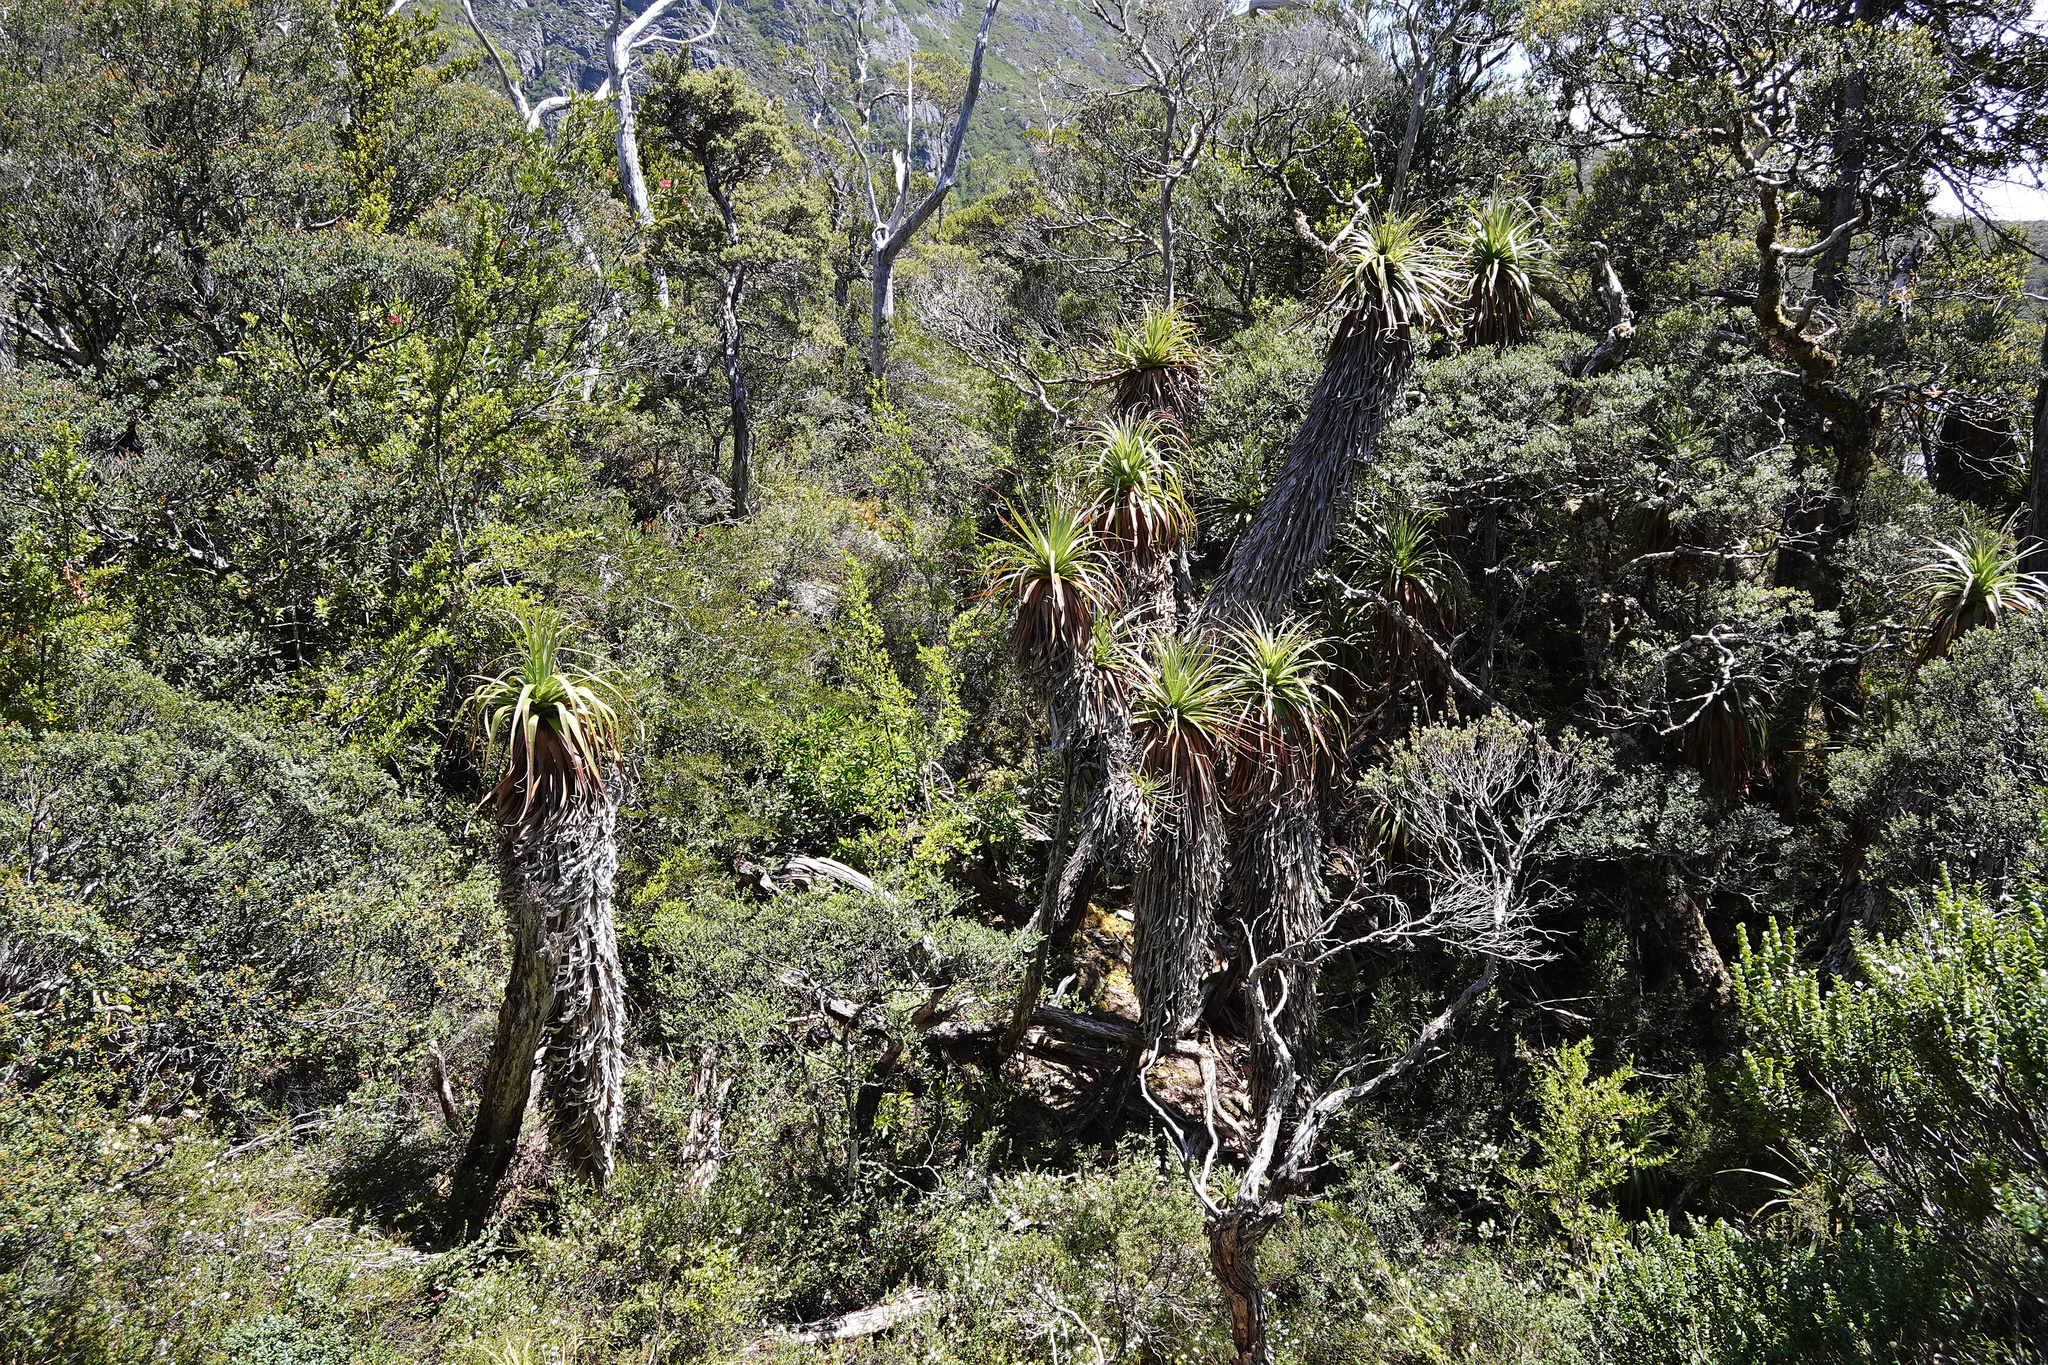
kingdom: Plantae
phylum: Tracheophyta
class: Magnoliopsida
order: Ericales
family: Ericaceae
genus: Dracophyllum
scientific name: Dracophyllum pandanifolium
